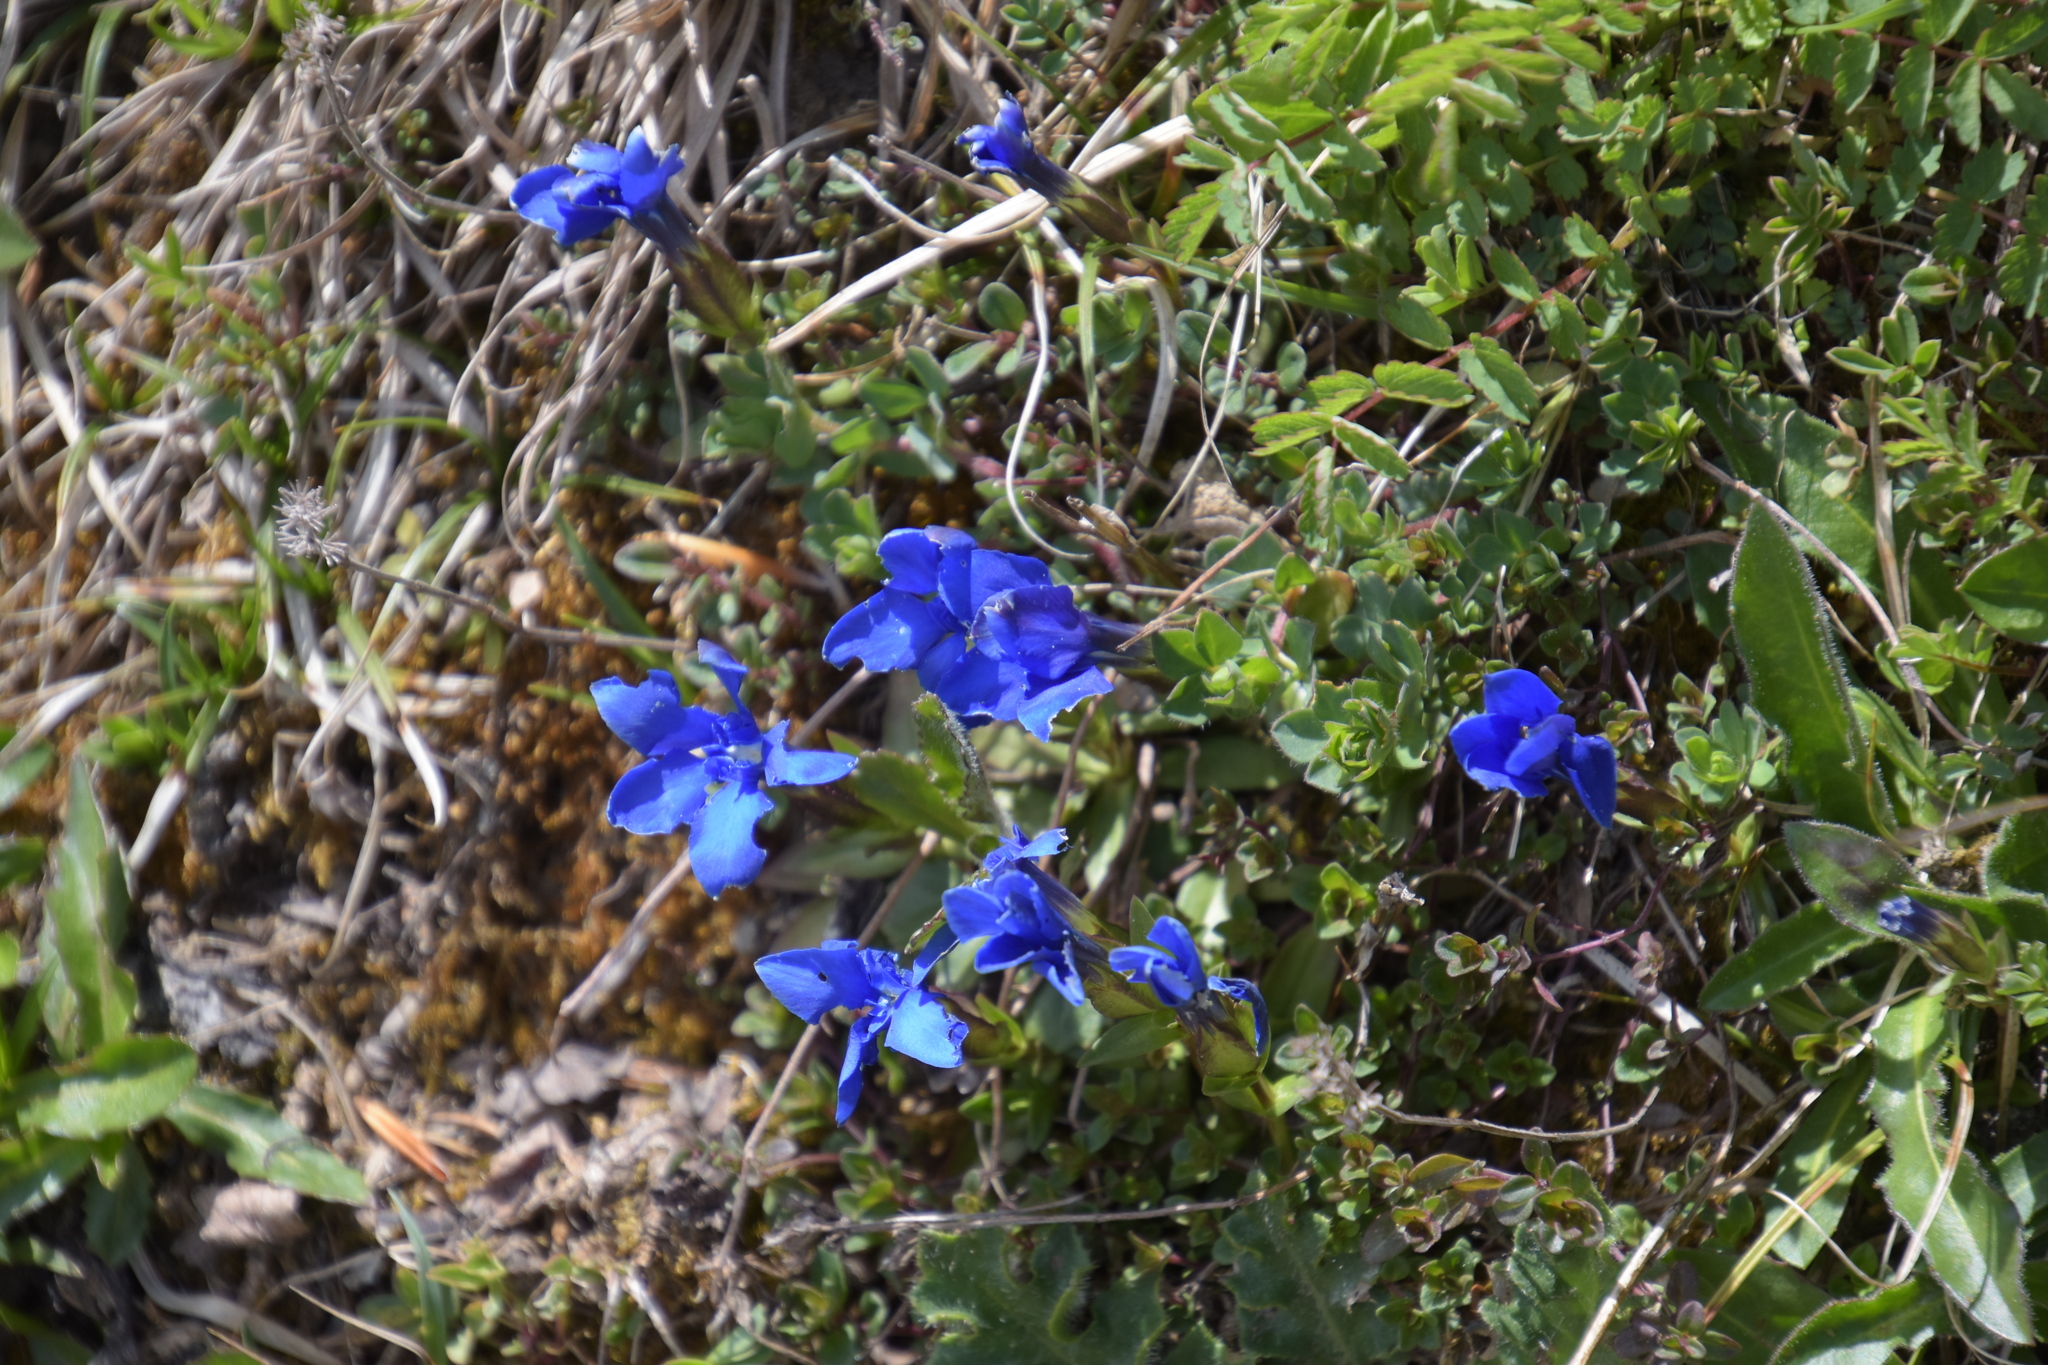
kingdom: Plantae
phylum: Tracheophyta
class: Magnoliopsida
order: Gentianales
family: Gentianaceae
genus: Gentiana
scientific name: Gentiana verna
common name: Spring gentian
